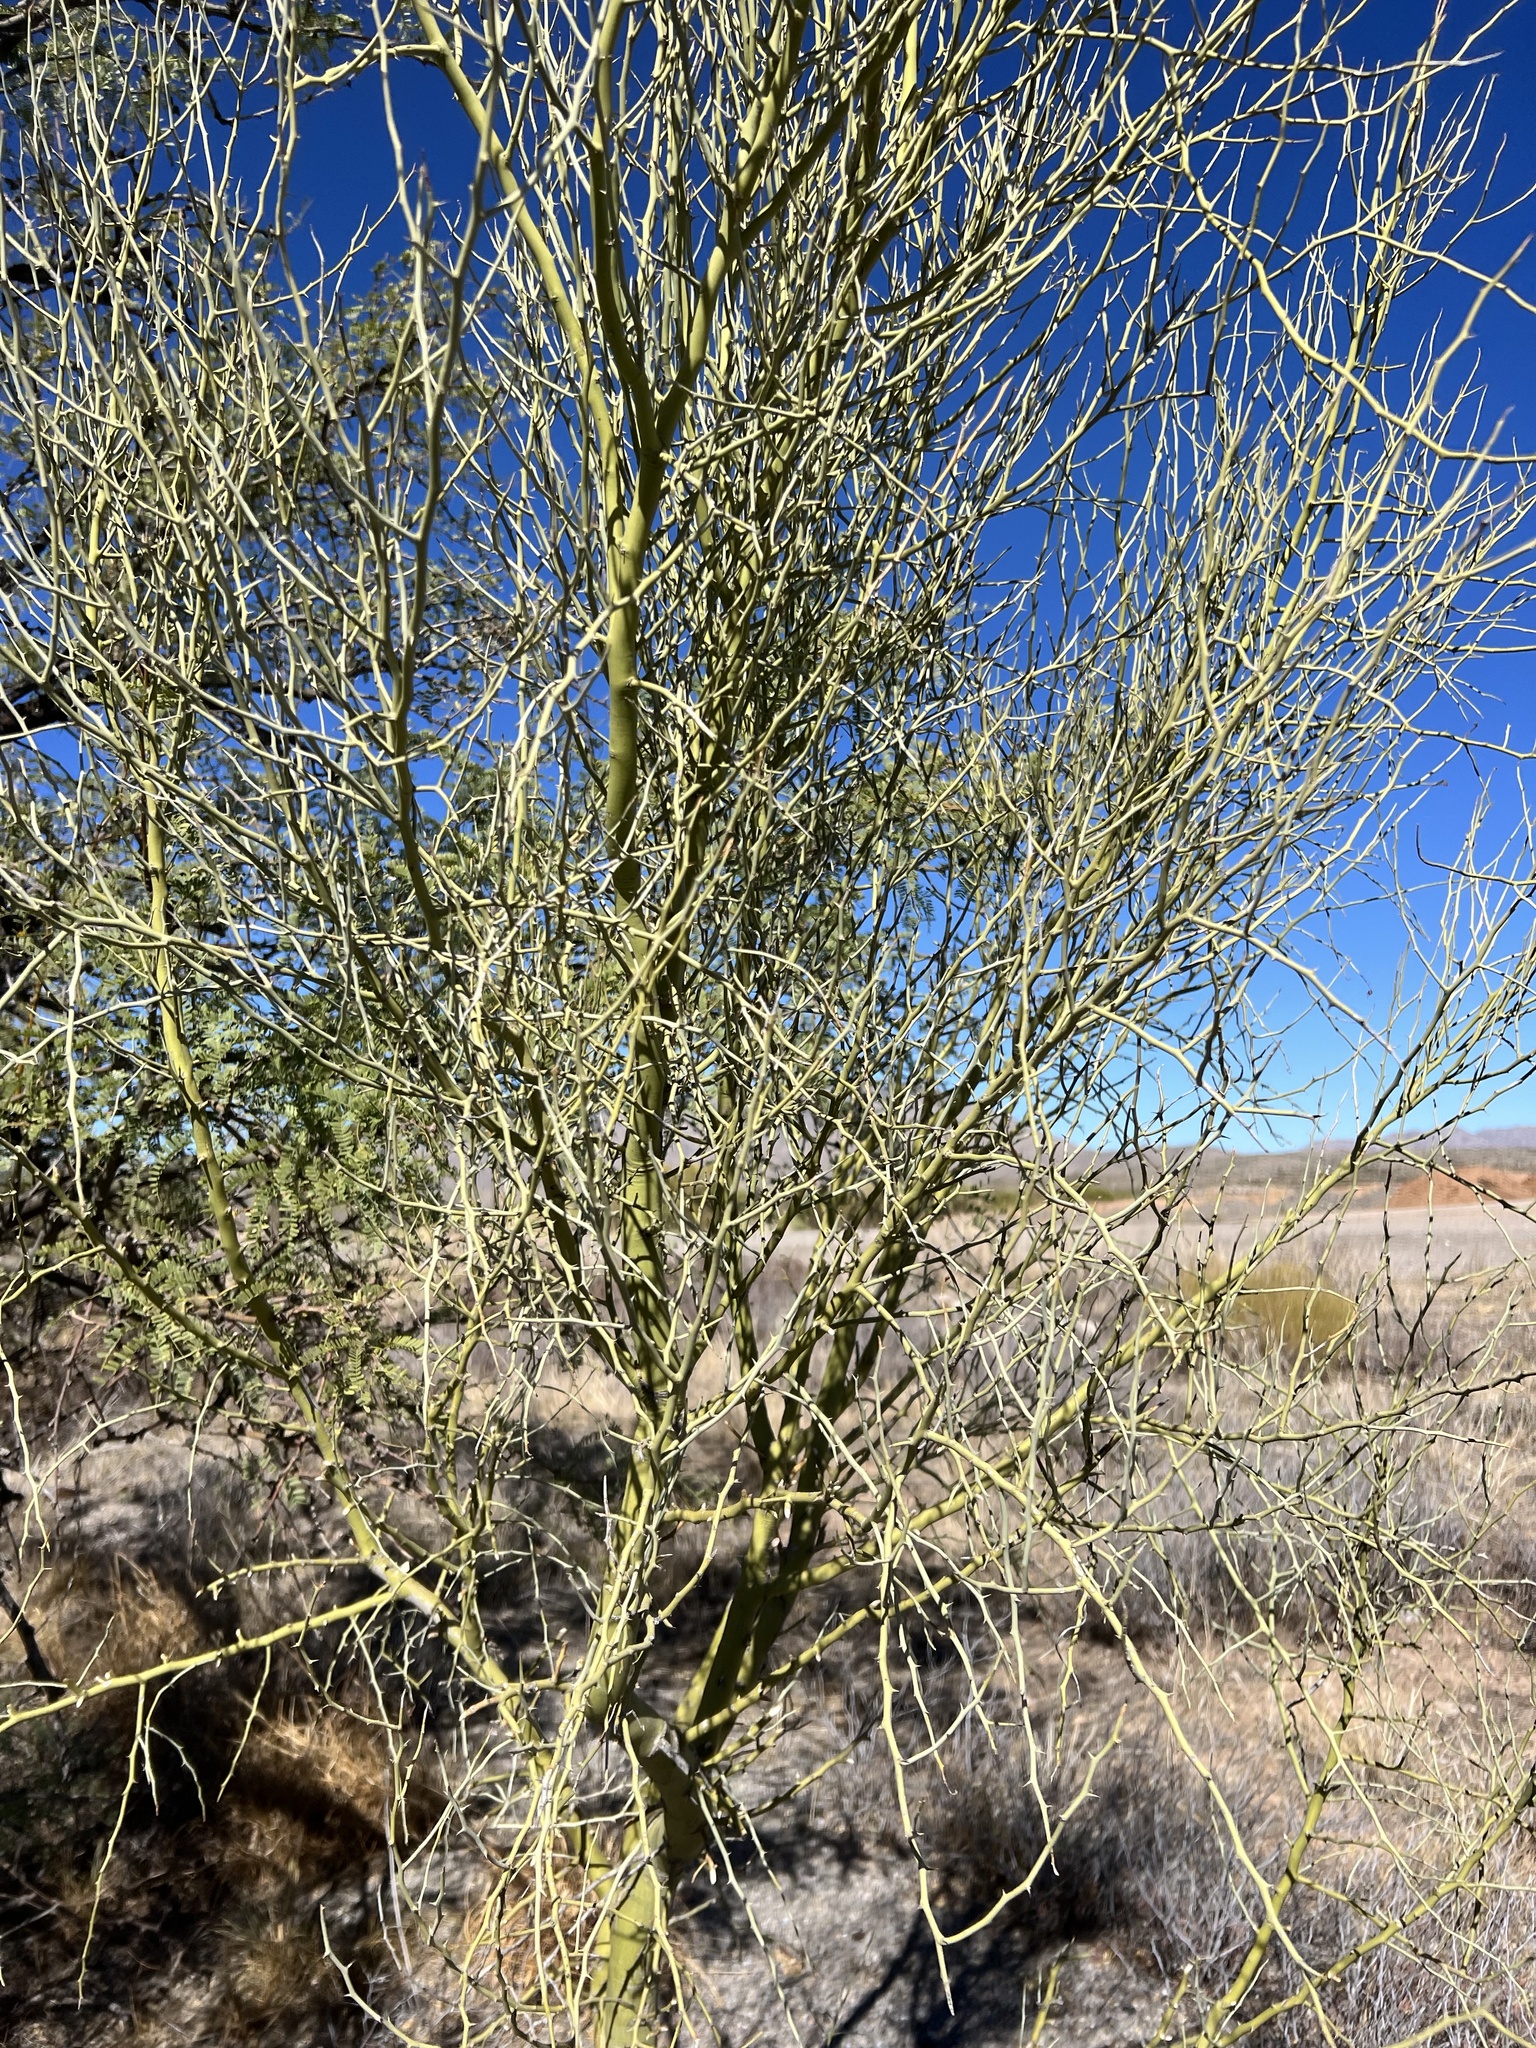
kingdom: Plantae
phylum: Tracheophyta
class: Magnoliopsida
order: Fabales
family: Fabaceae
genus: Parkinsonia
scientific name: Parkinsonia microphylla
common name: Yellow paloverde
